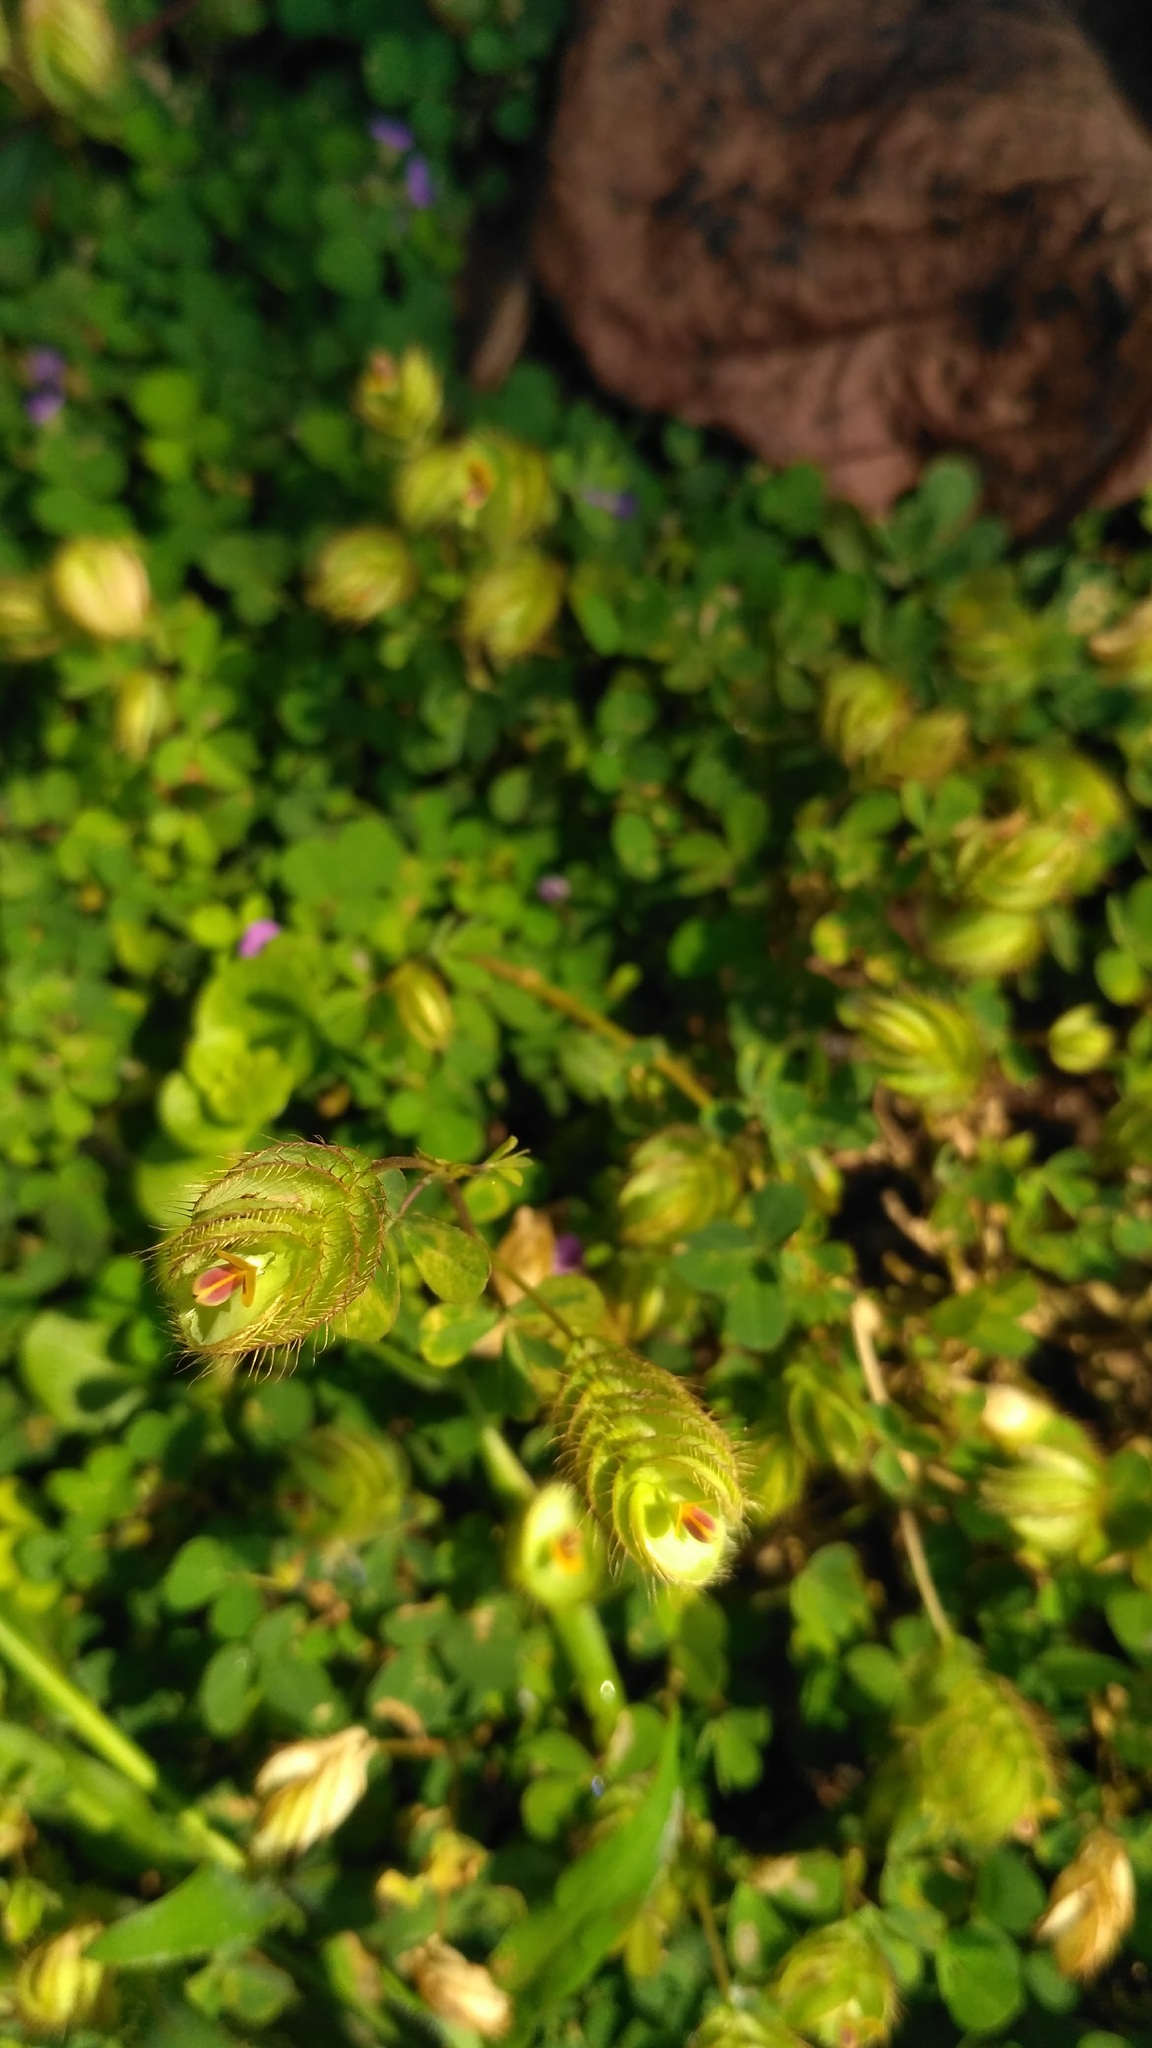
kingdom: Plantae
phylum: Tracheophyta
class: Magnoliopsida
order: Fabales
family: Fabaceae
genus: Geissaspis
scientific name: Geissaspis cristata
